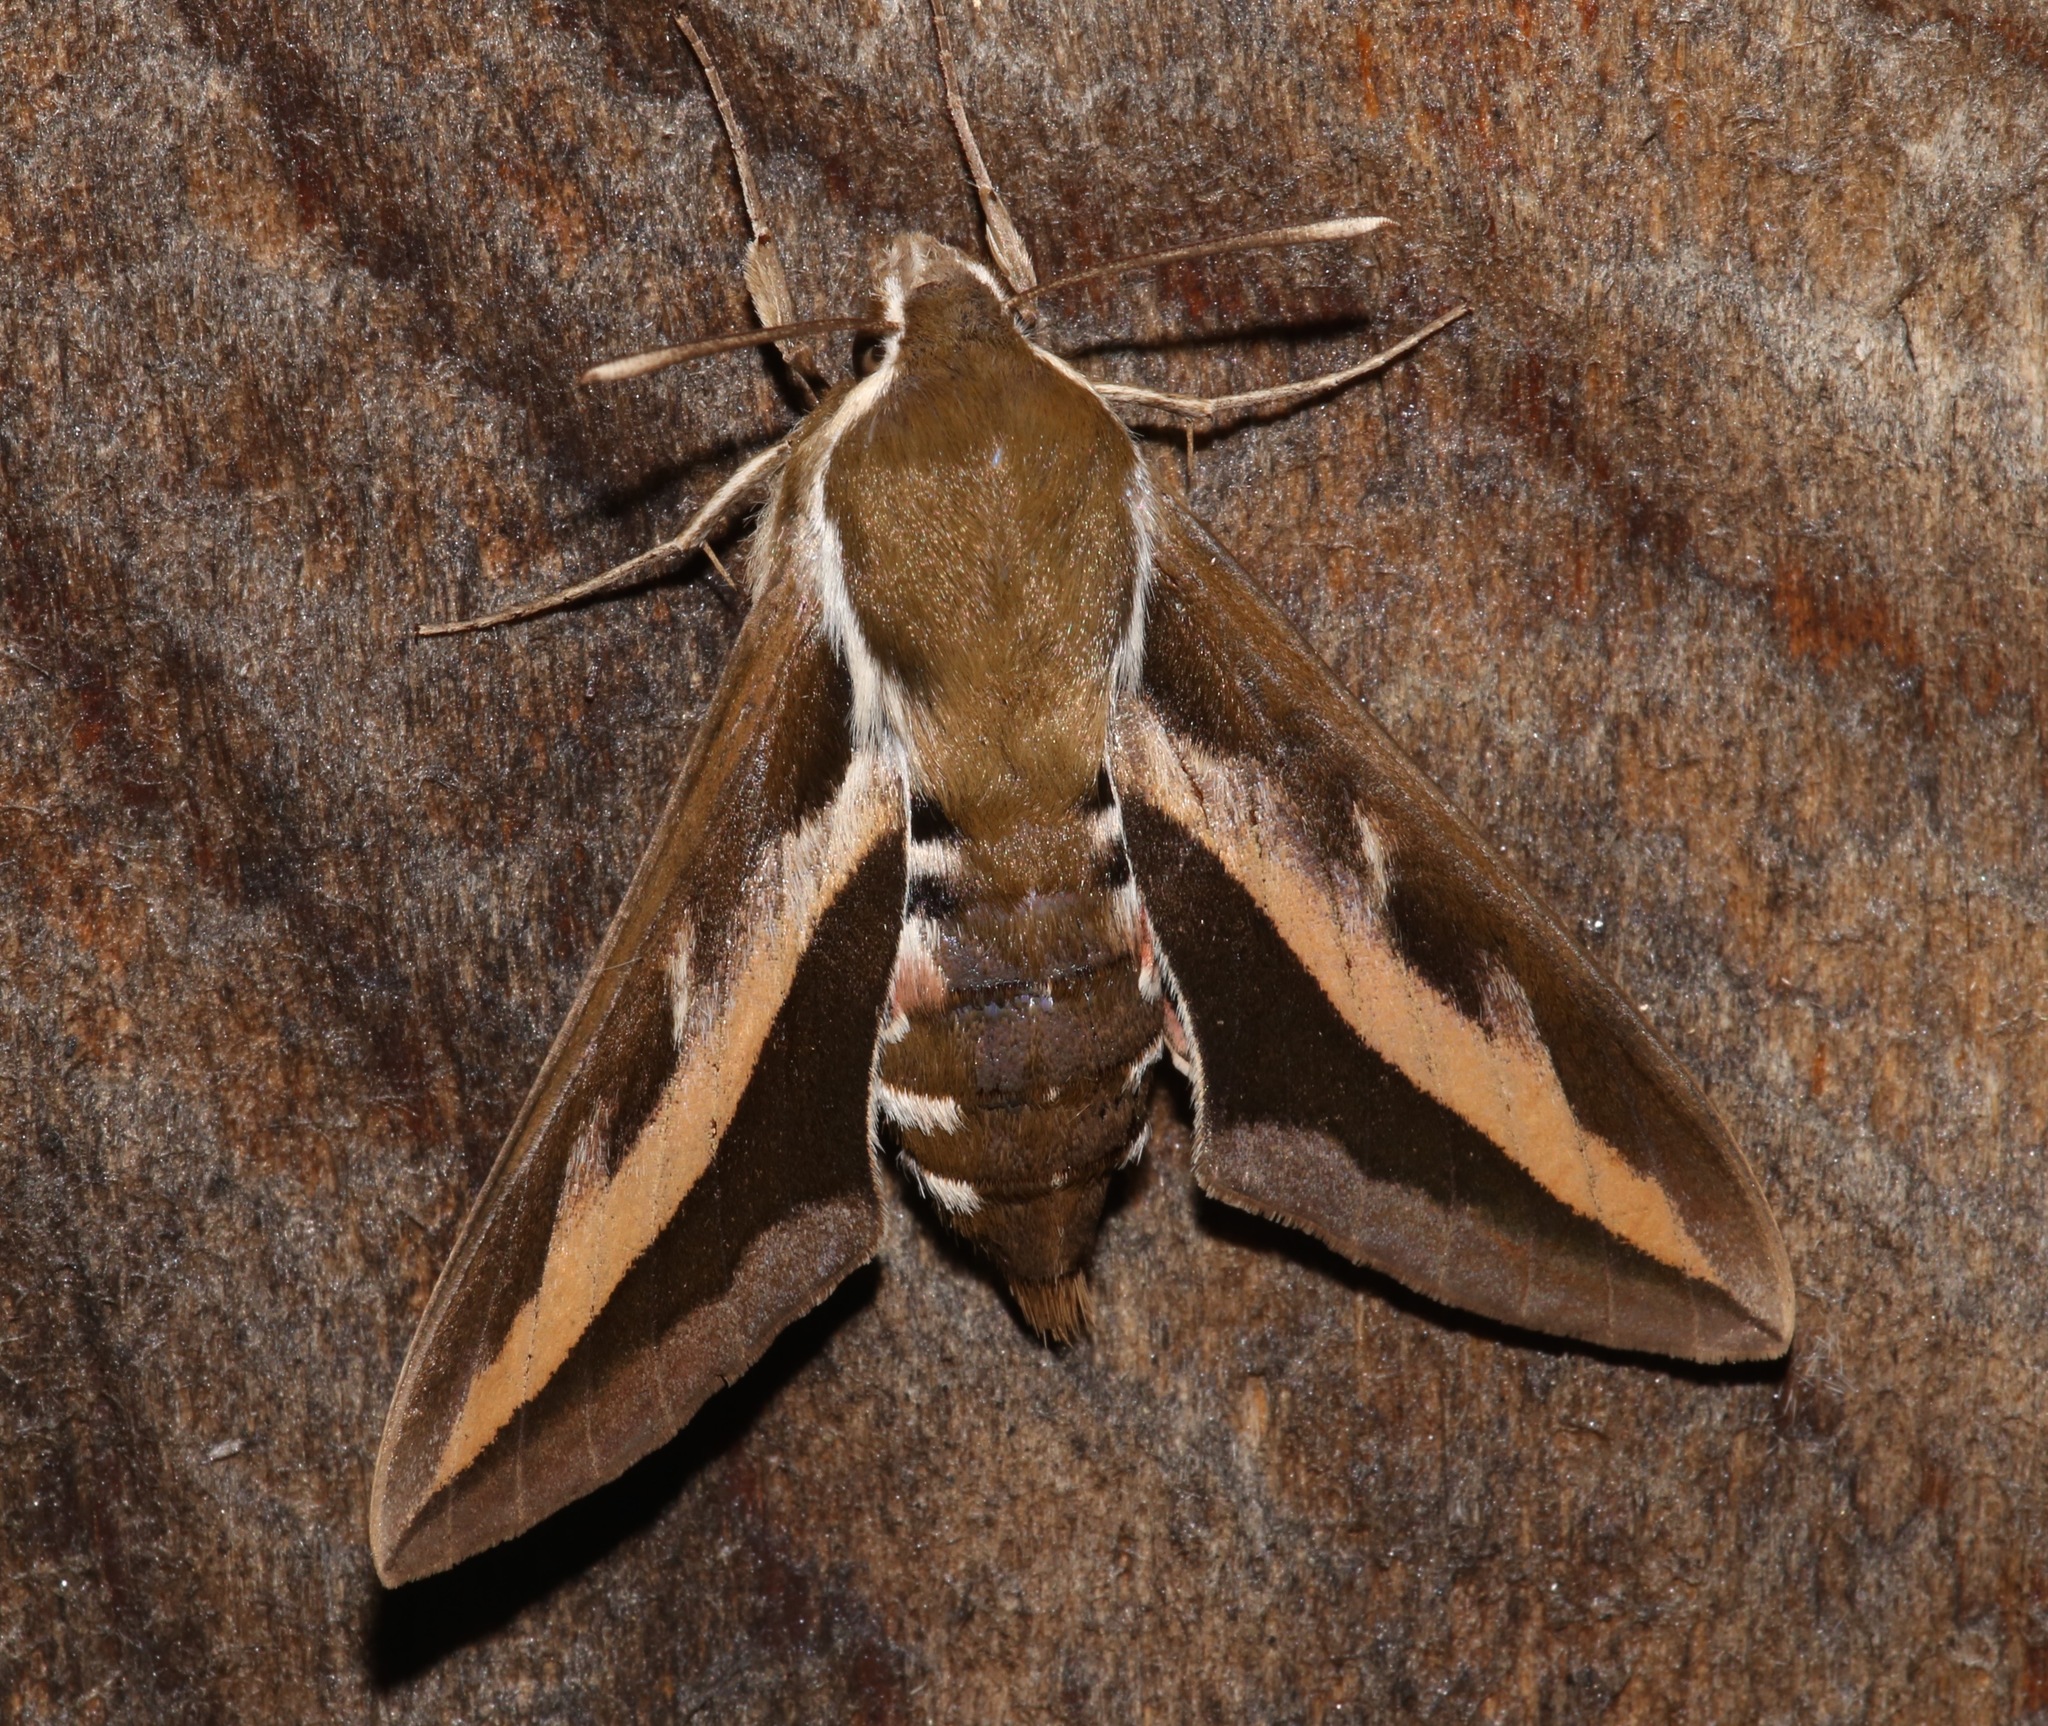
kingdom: Animalia
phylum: Arthropoda
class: Insecta
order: Lepidoptera
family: Sphingidae
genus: Hyles
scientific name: Hyles gallii
